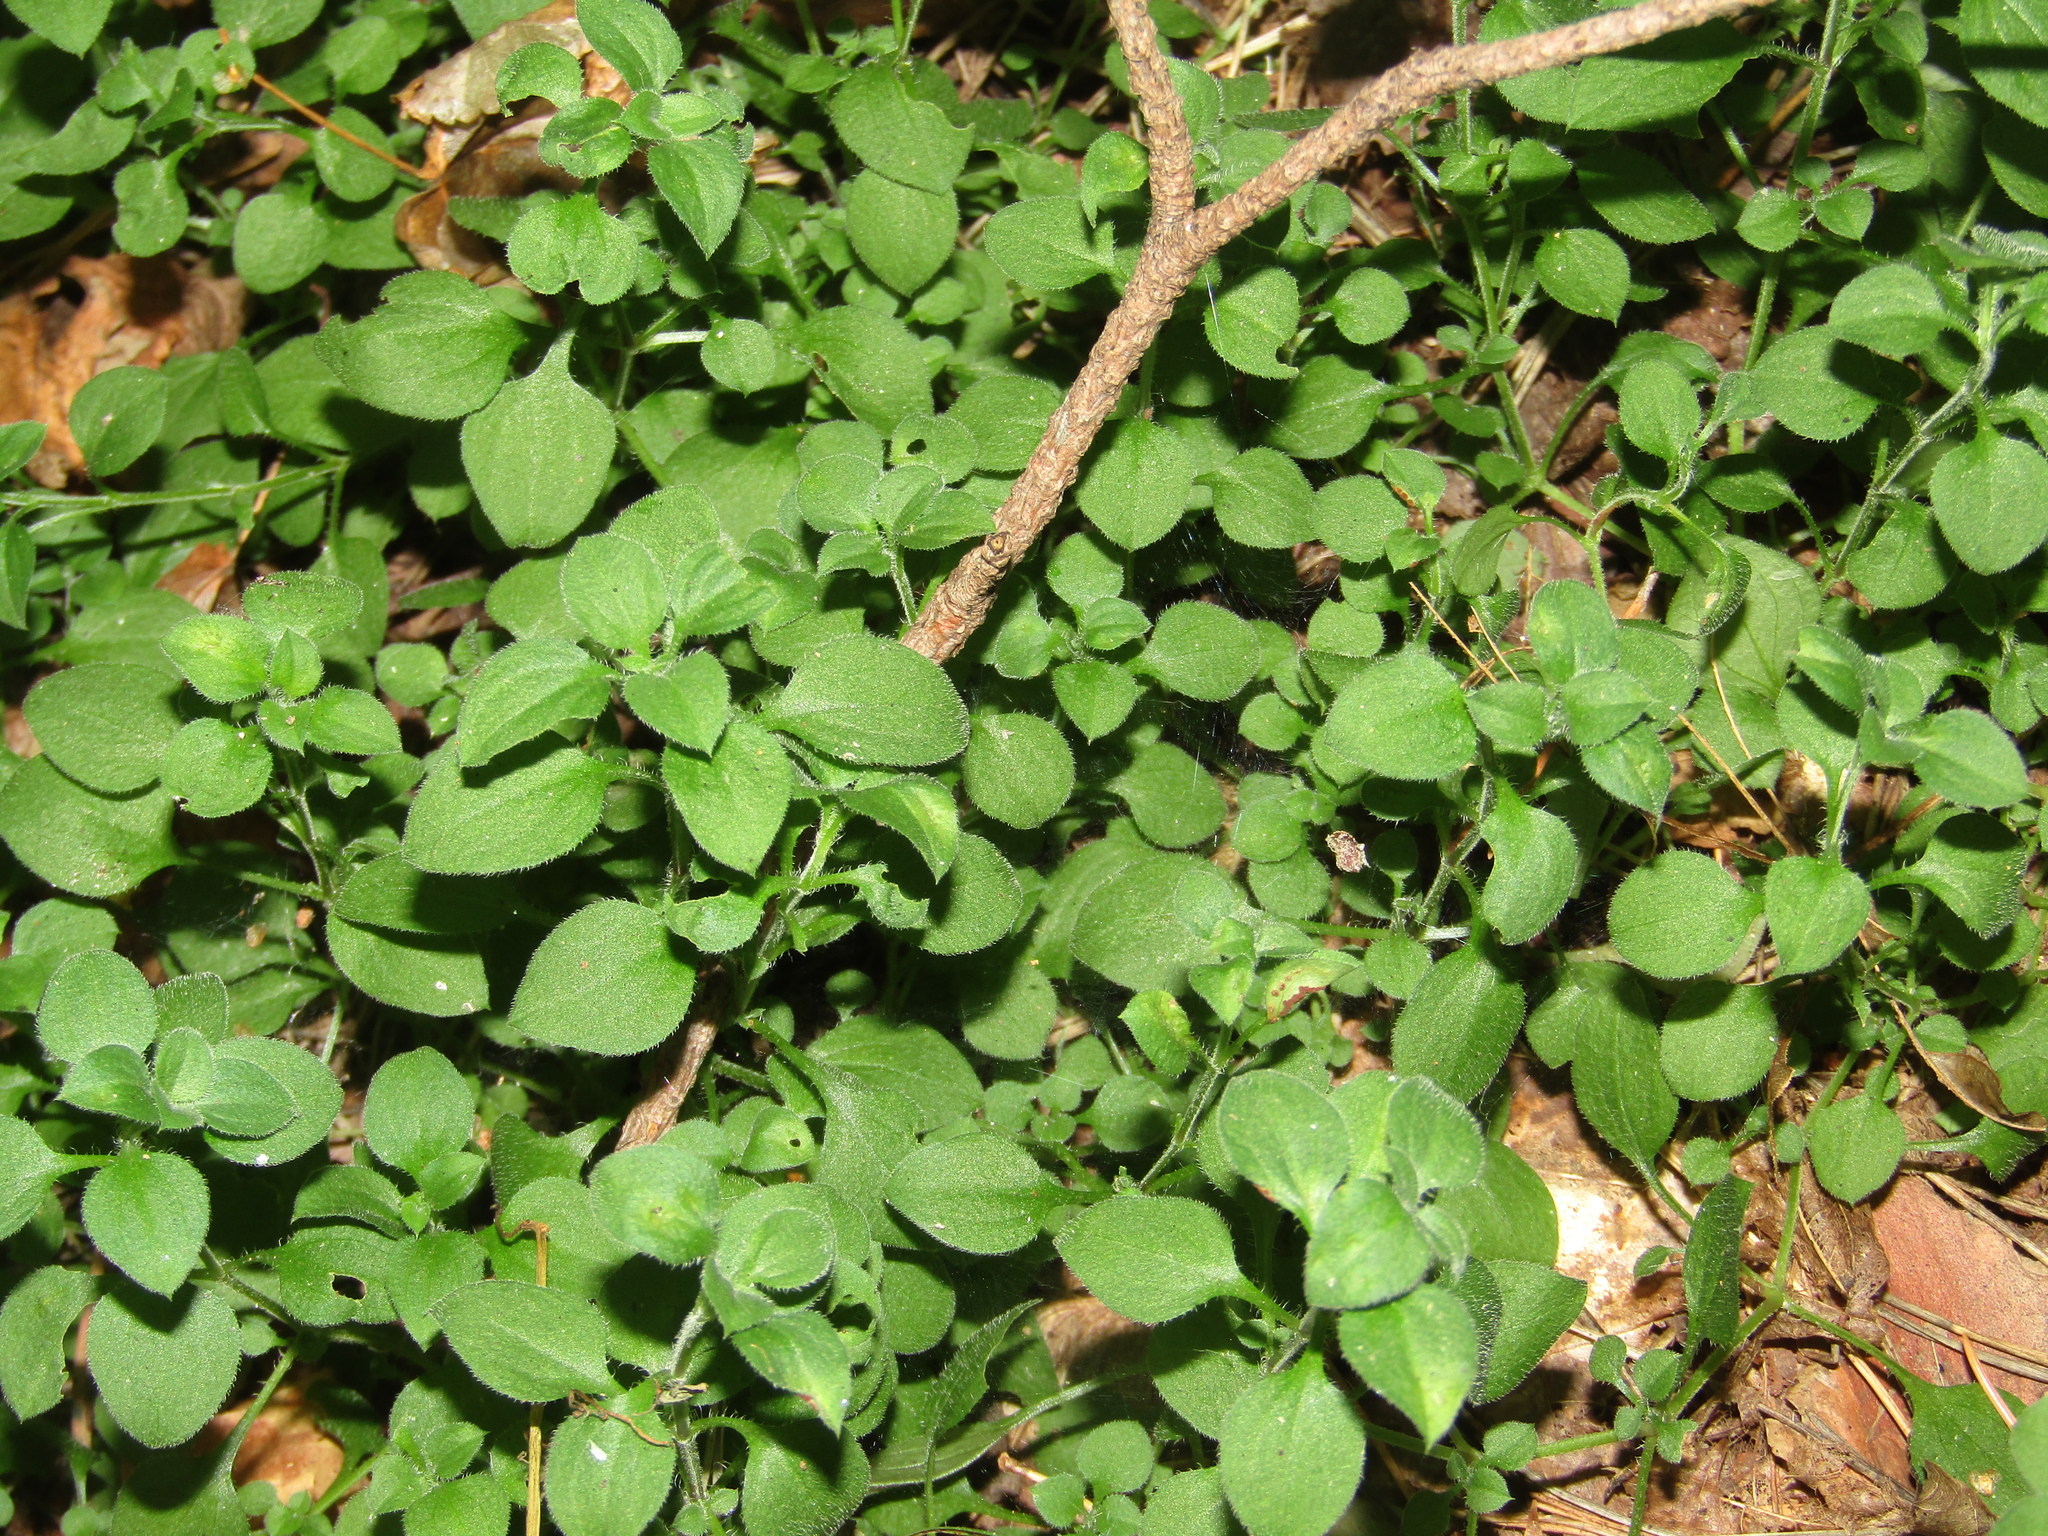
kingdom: Plantae
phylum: Tracheophyta
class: Magnoliopsida
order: Caryophyllales
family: Caryophyllaceae
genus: Moehringia
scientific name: Moehringia trinervia
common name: Three-nerved sandwort
